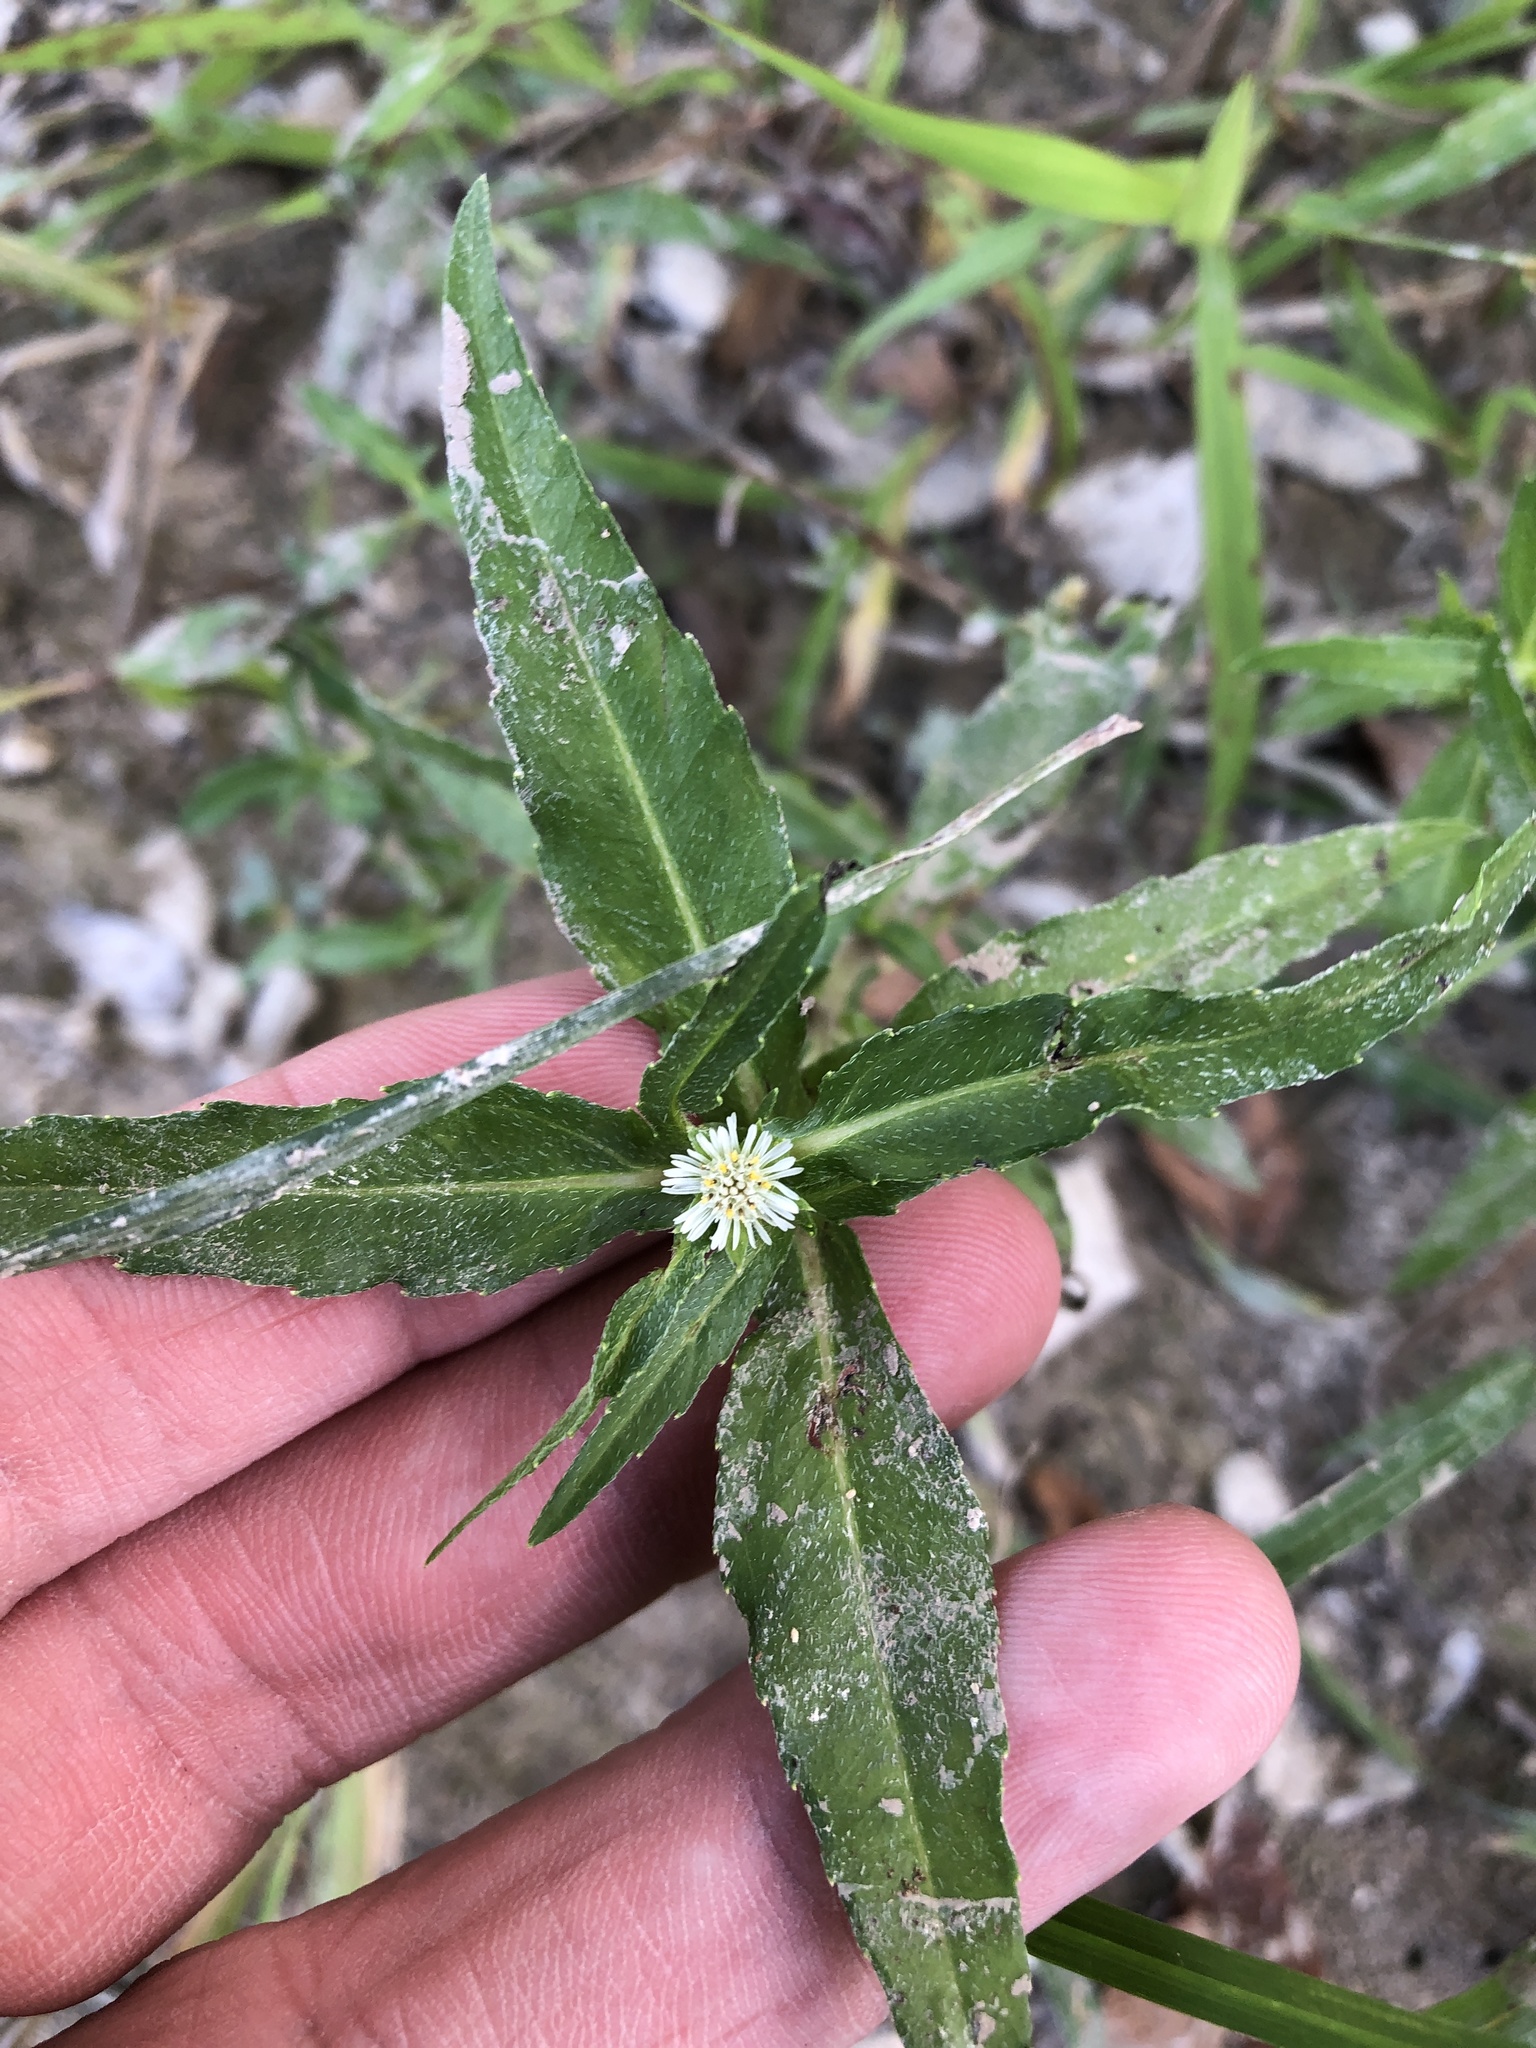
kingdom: Plantae
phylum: Tracheophyta
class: Magnoliopsida
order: Asterales
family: Asteraceae
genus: Eclipta
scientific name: Eclipta prostrata
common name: False daisy
